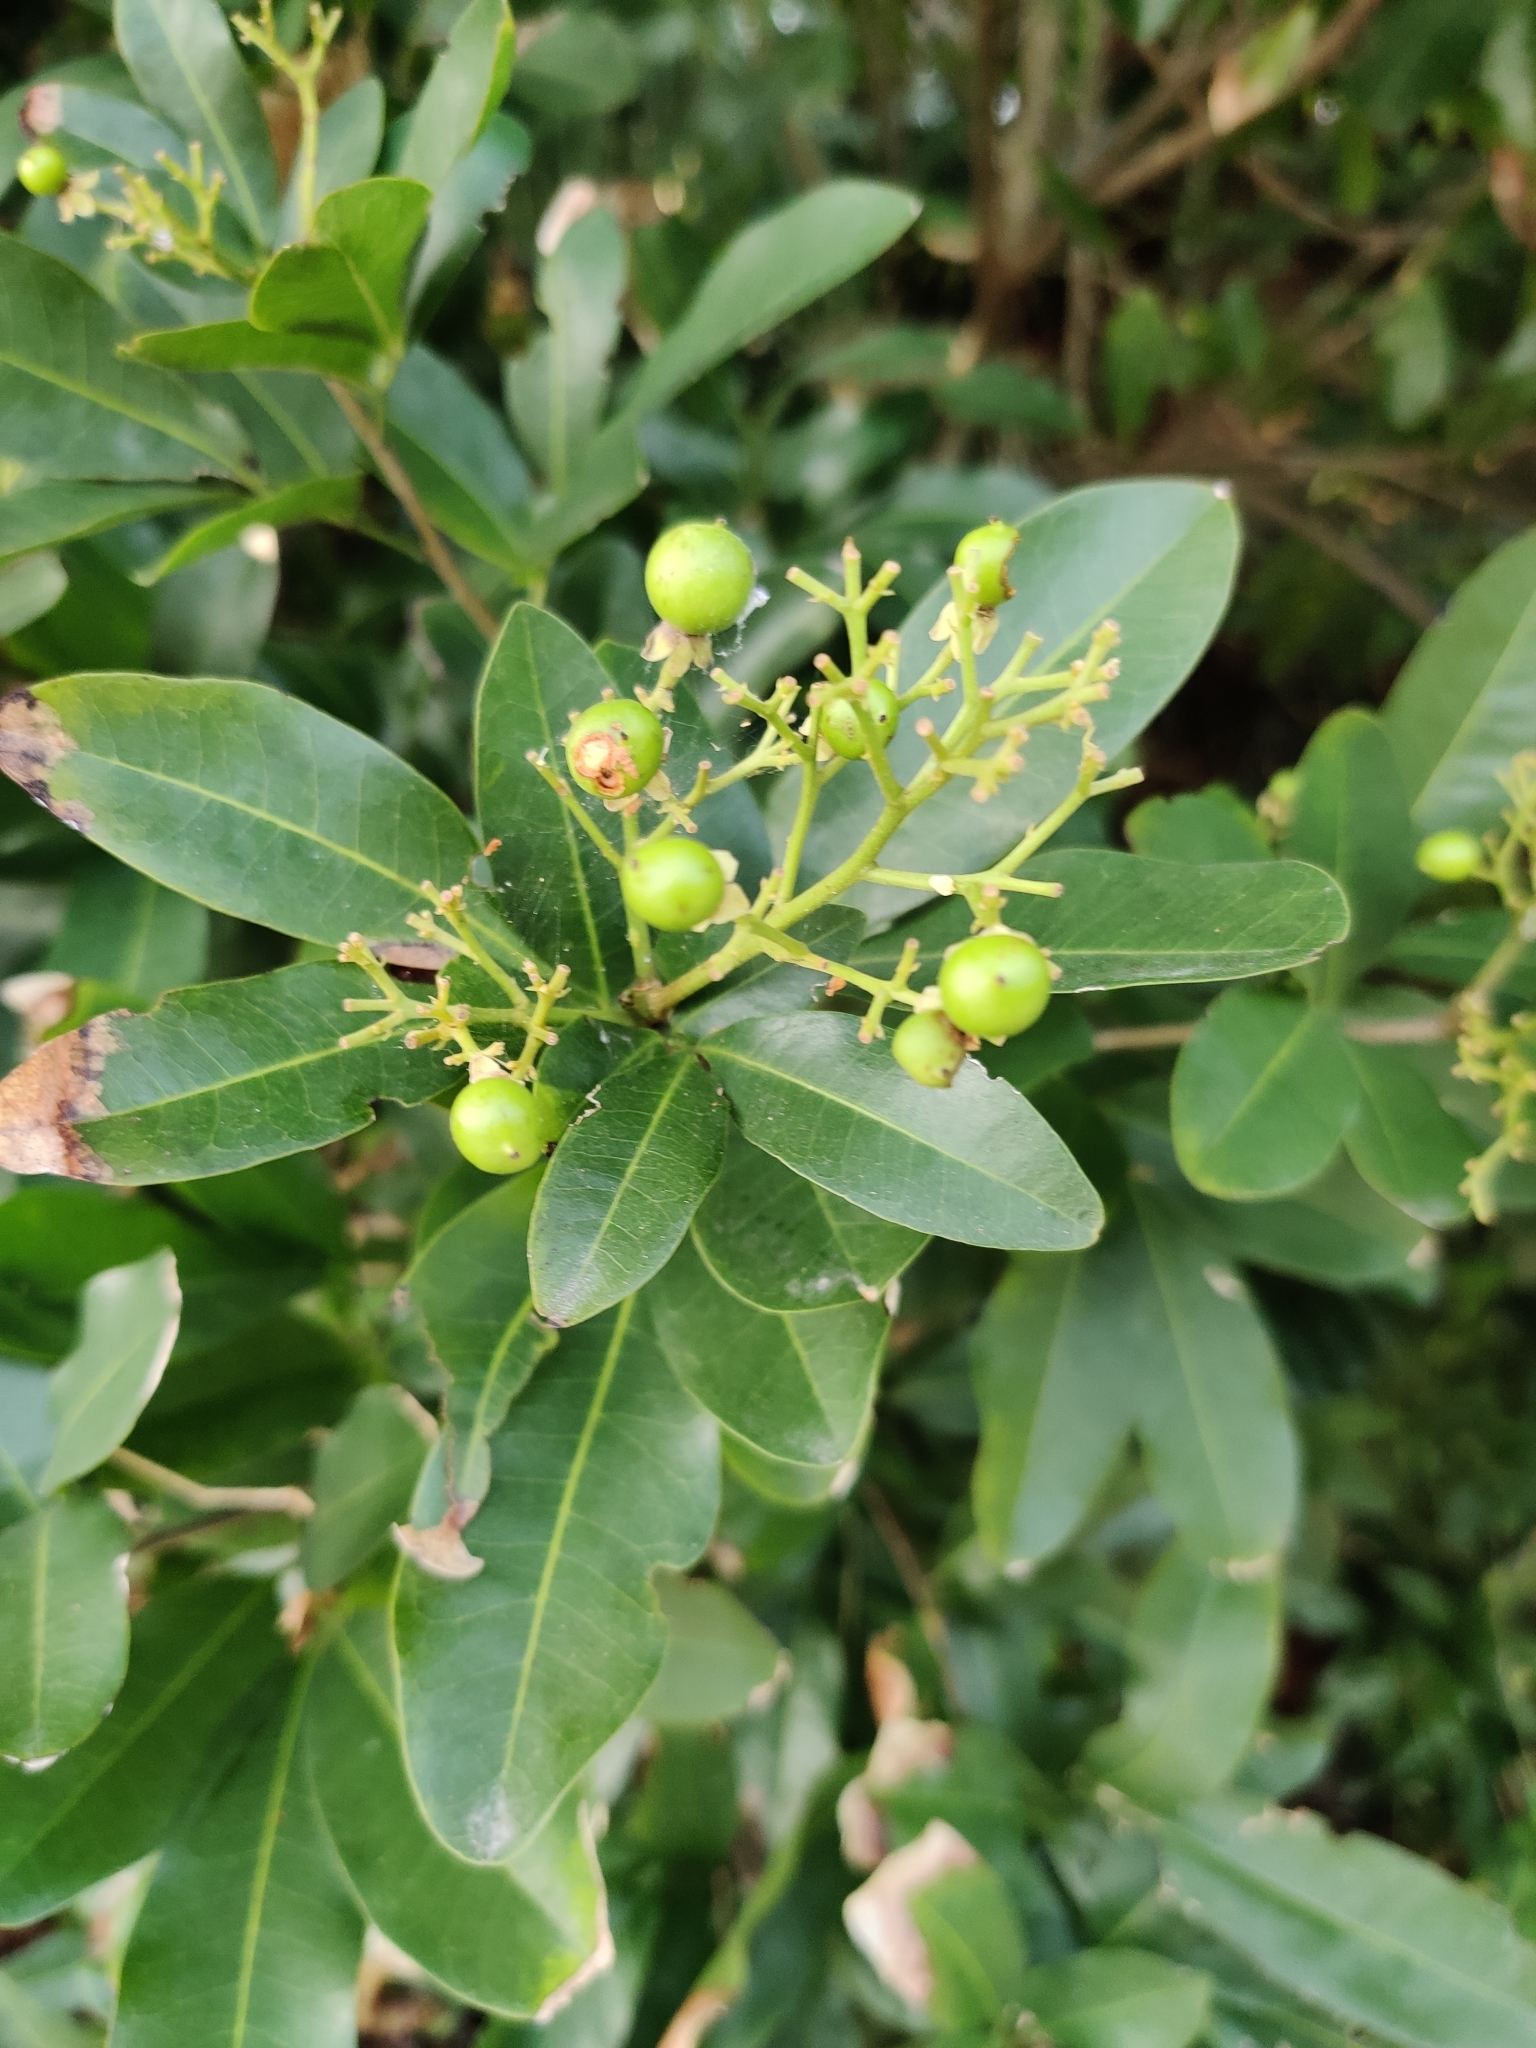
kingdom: Plantae
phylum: Tracheophyta
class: Magnoliopsida
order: Sapindales
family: Sapindaceae
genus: Exothea
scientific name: Exothea paniculata
